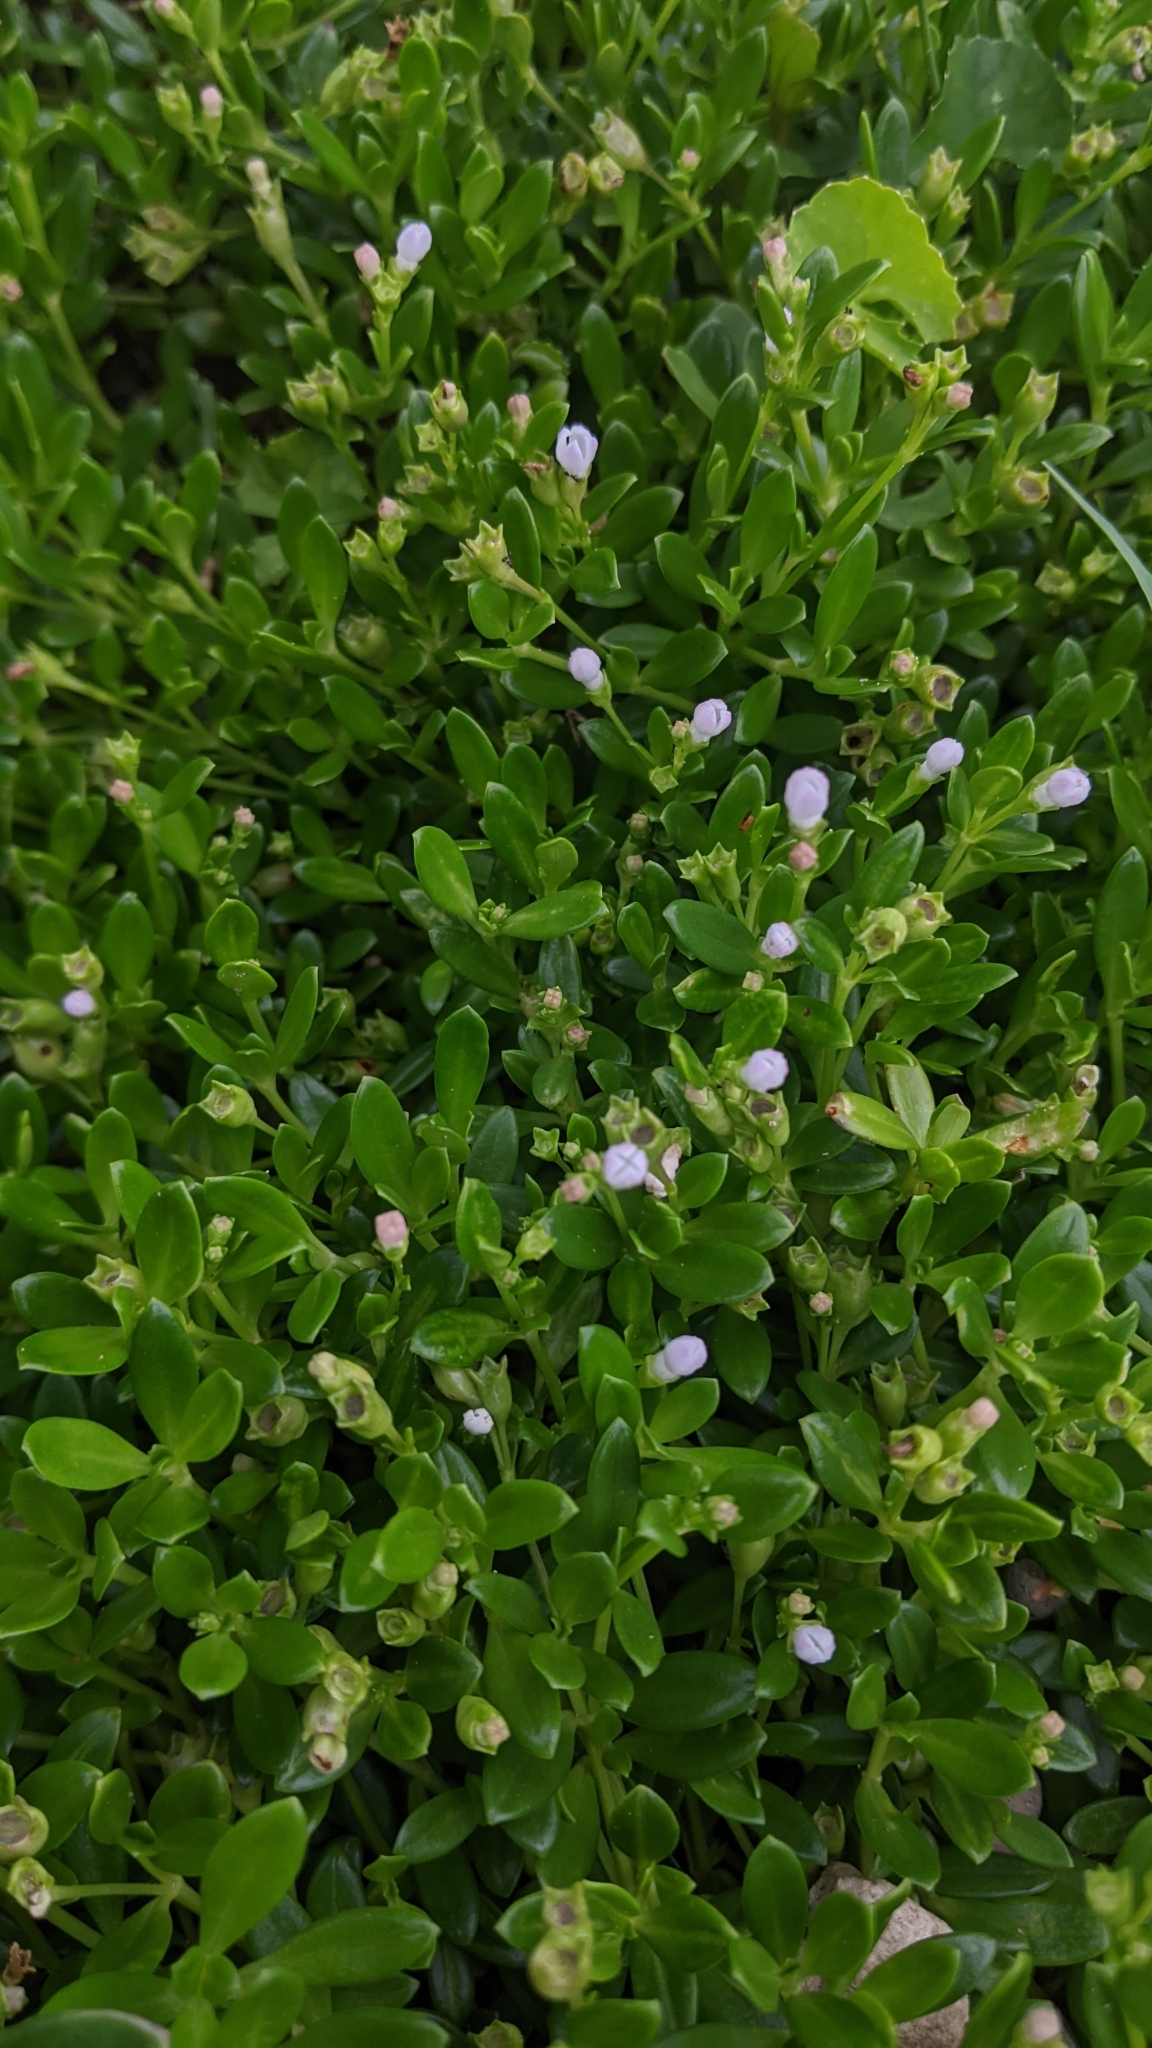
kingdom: Plantae
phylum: Tracheophyta
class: Magnoliopsida
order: Gentianales
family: Rubiaceae
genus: Leptopetalum
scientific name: Leptopetalum strigulosum
